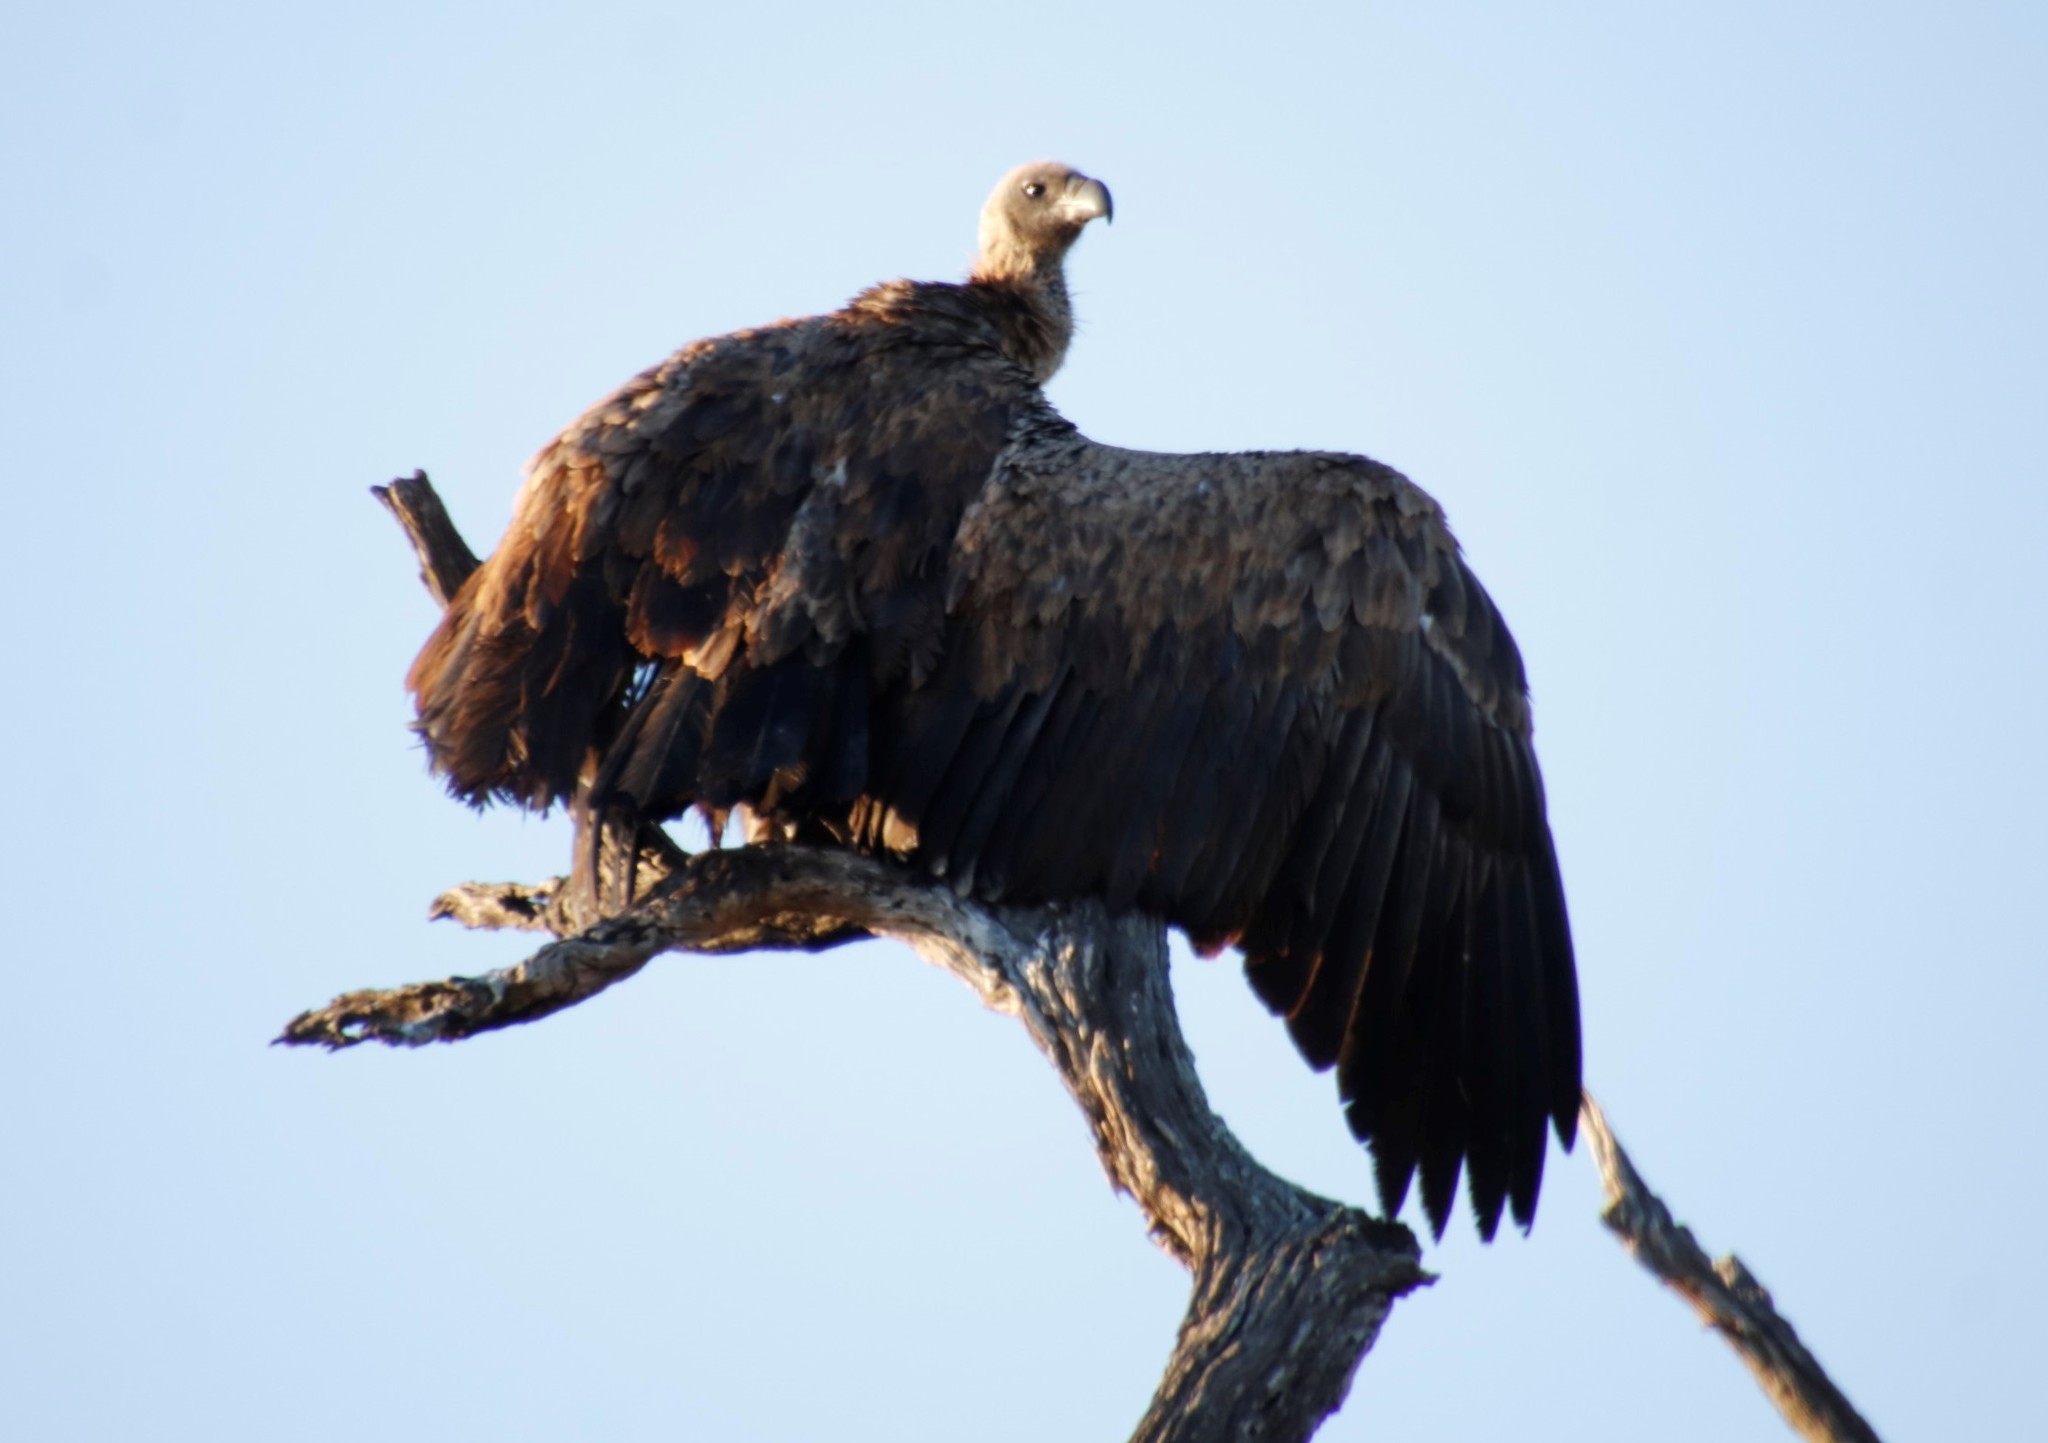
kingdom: Animalia
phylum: Chordata
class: Aves
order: Accipitriformes
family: Accipitridae
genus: Gyps
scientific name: Gyps africanus
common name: White-backed vulture
